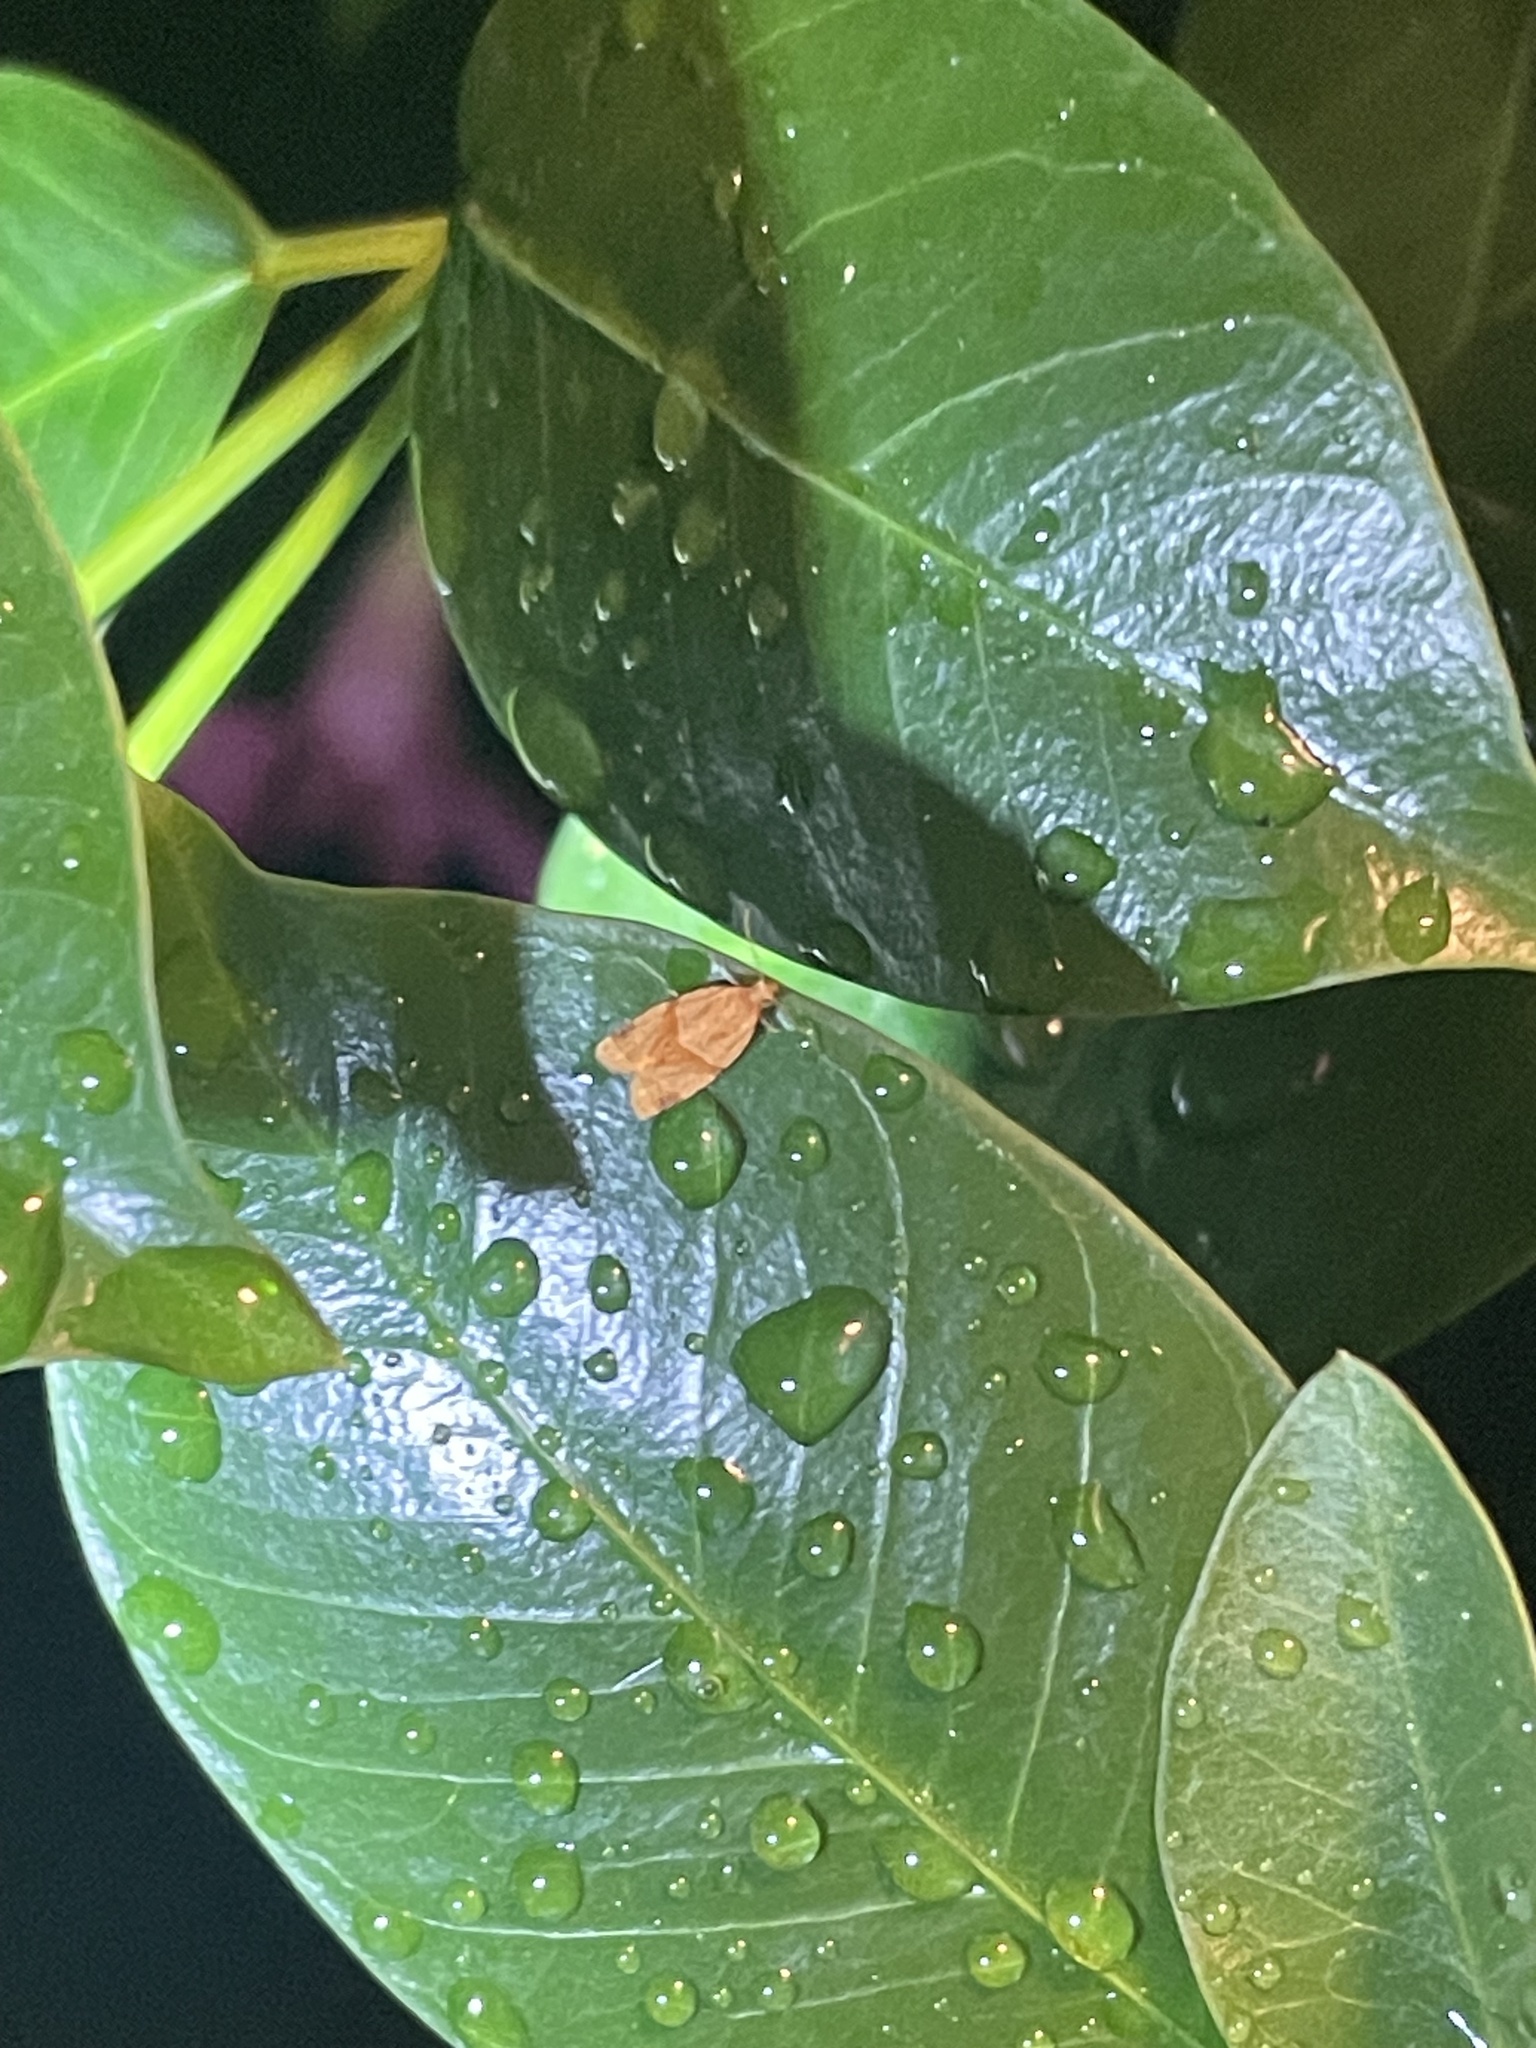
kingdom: Animalia
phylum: Arthropoda
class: Insecta
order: Lepidoptera
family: Tortricidae
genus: Clepsis
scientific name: Clepsis peritana
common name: Garden tortrix
